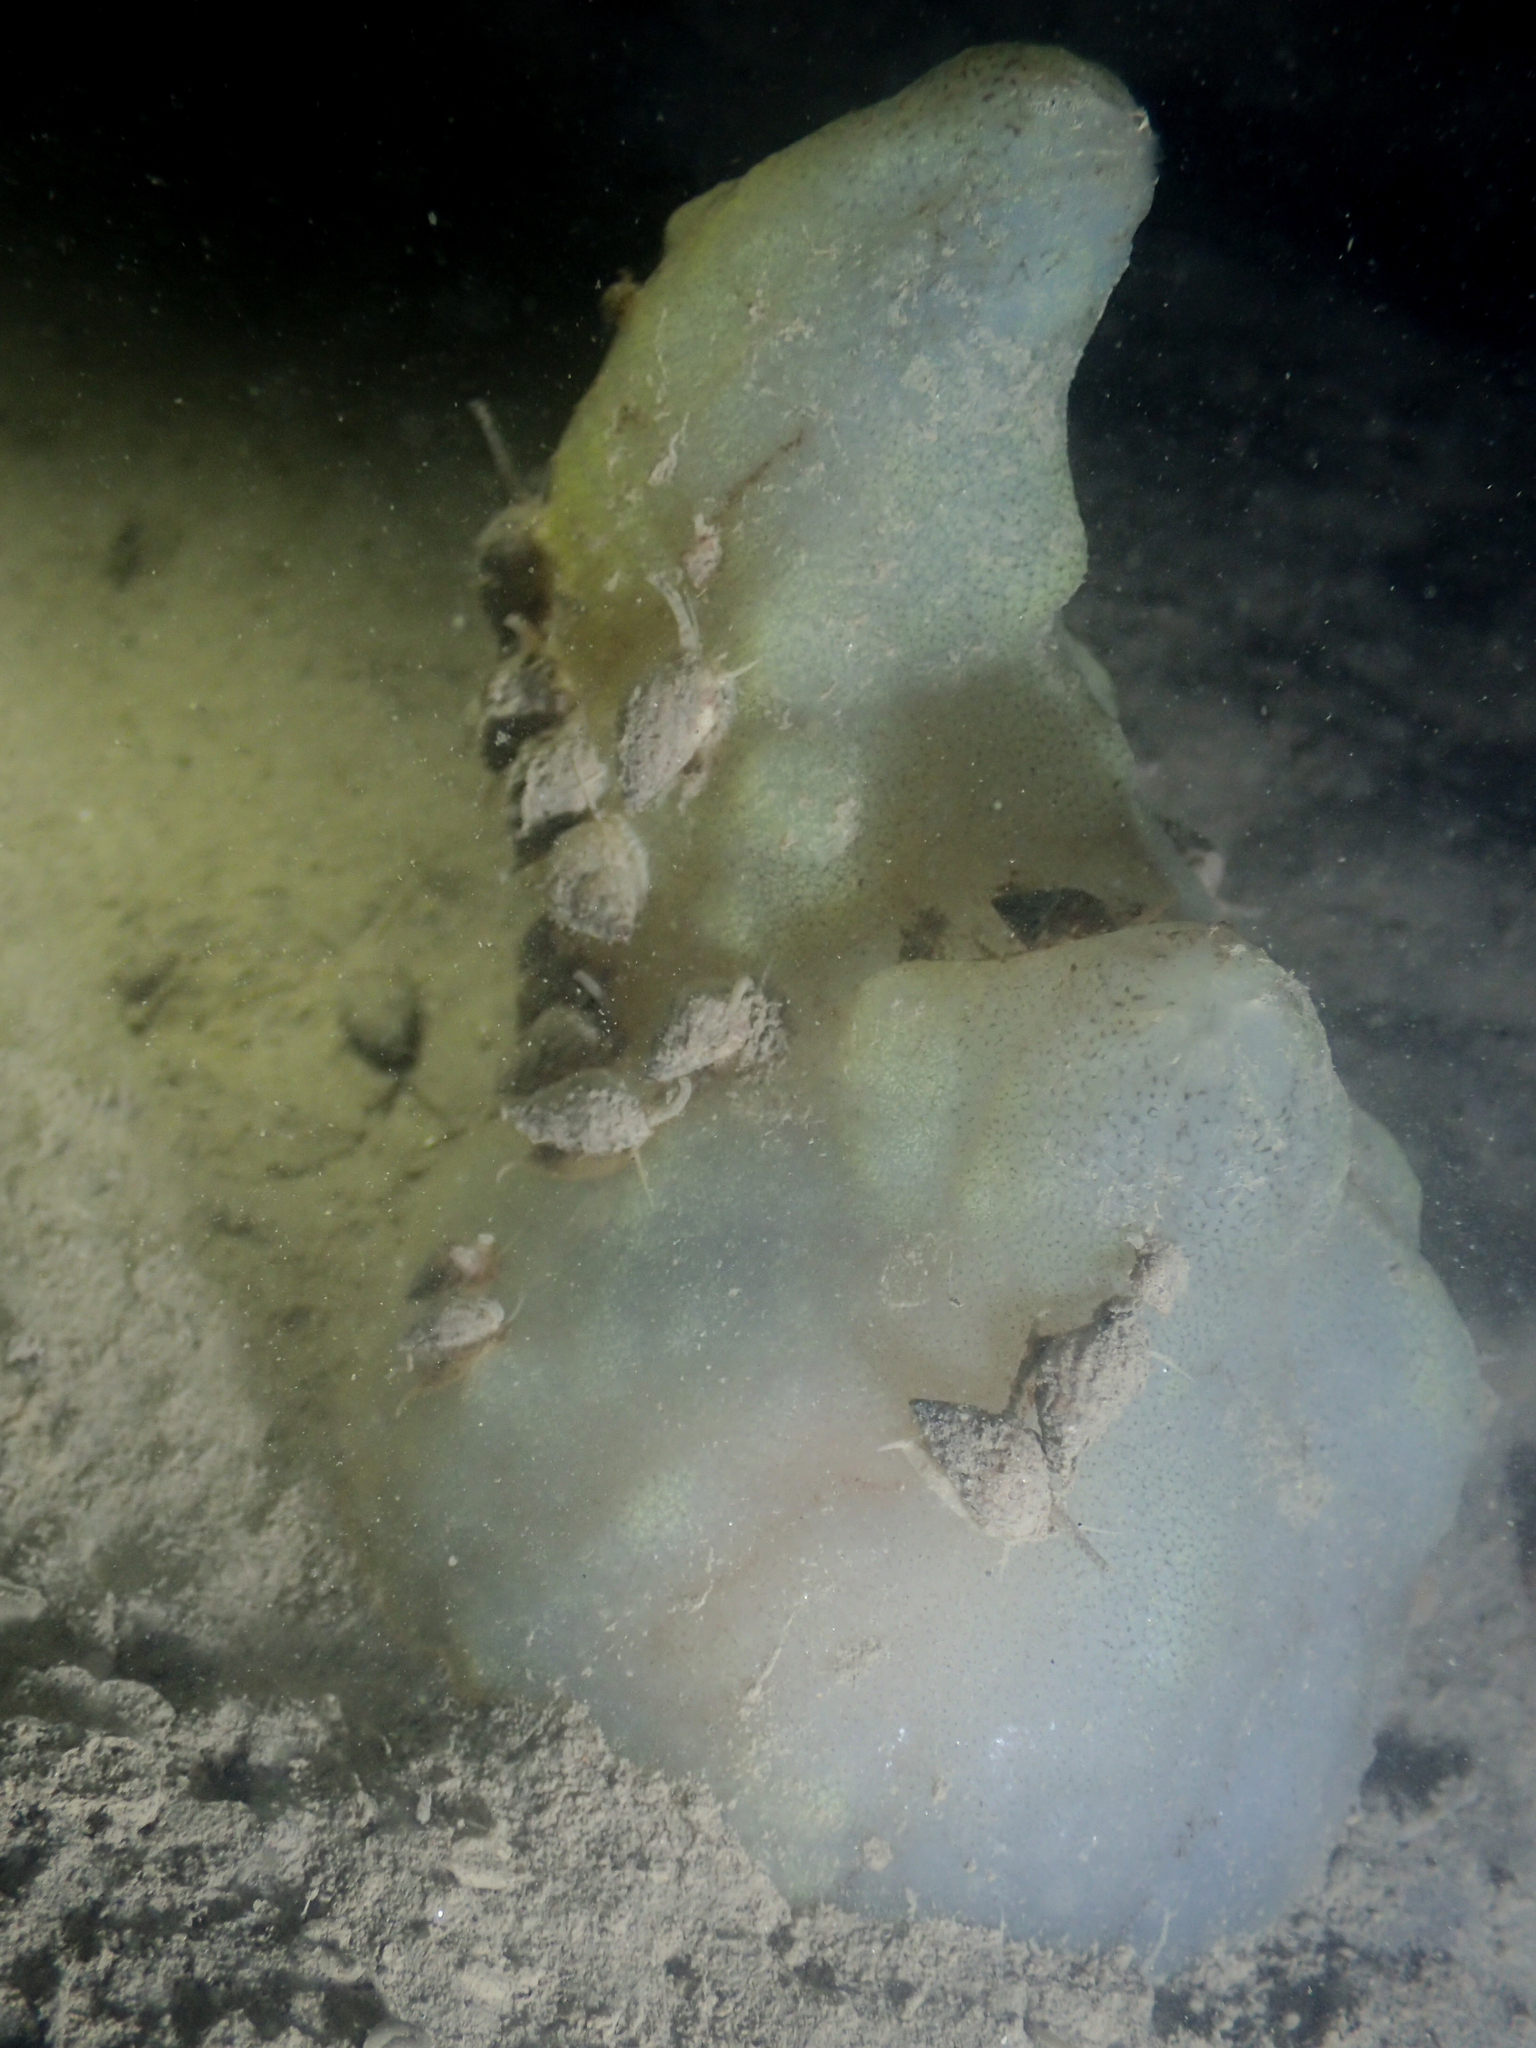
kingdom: Animalia
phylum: Chordata
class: Ascidiacea
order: Phlebobranchia
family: Ascidiidae
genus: Phallusia
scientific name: Phallusia mammillata
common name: Neptune's heart sea squirt
